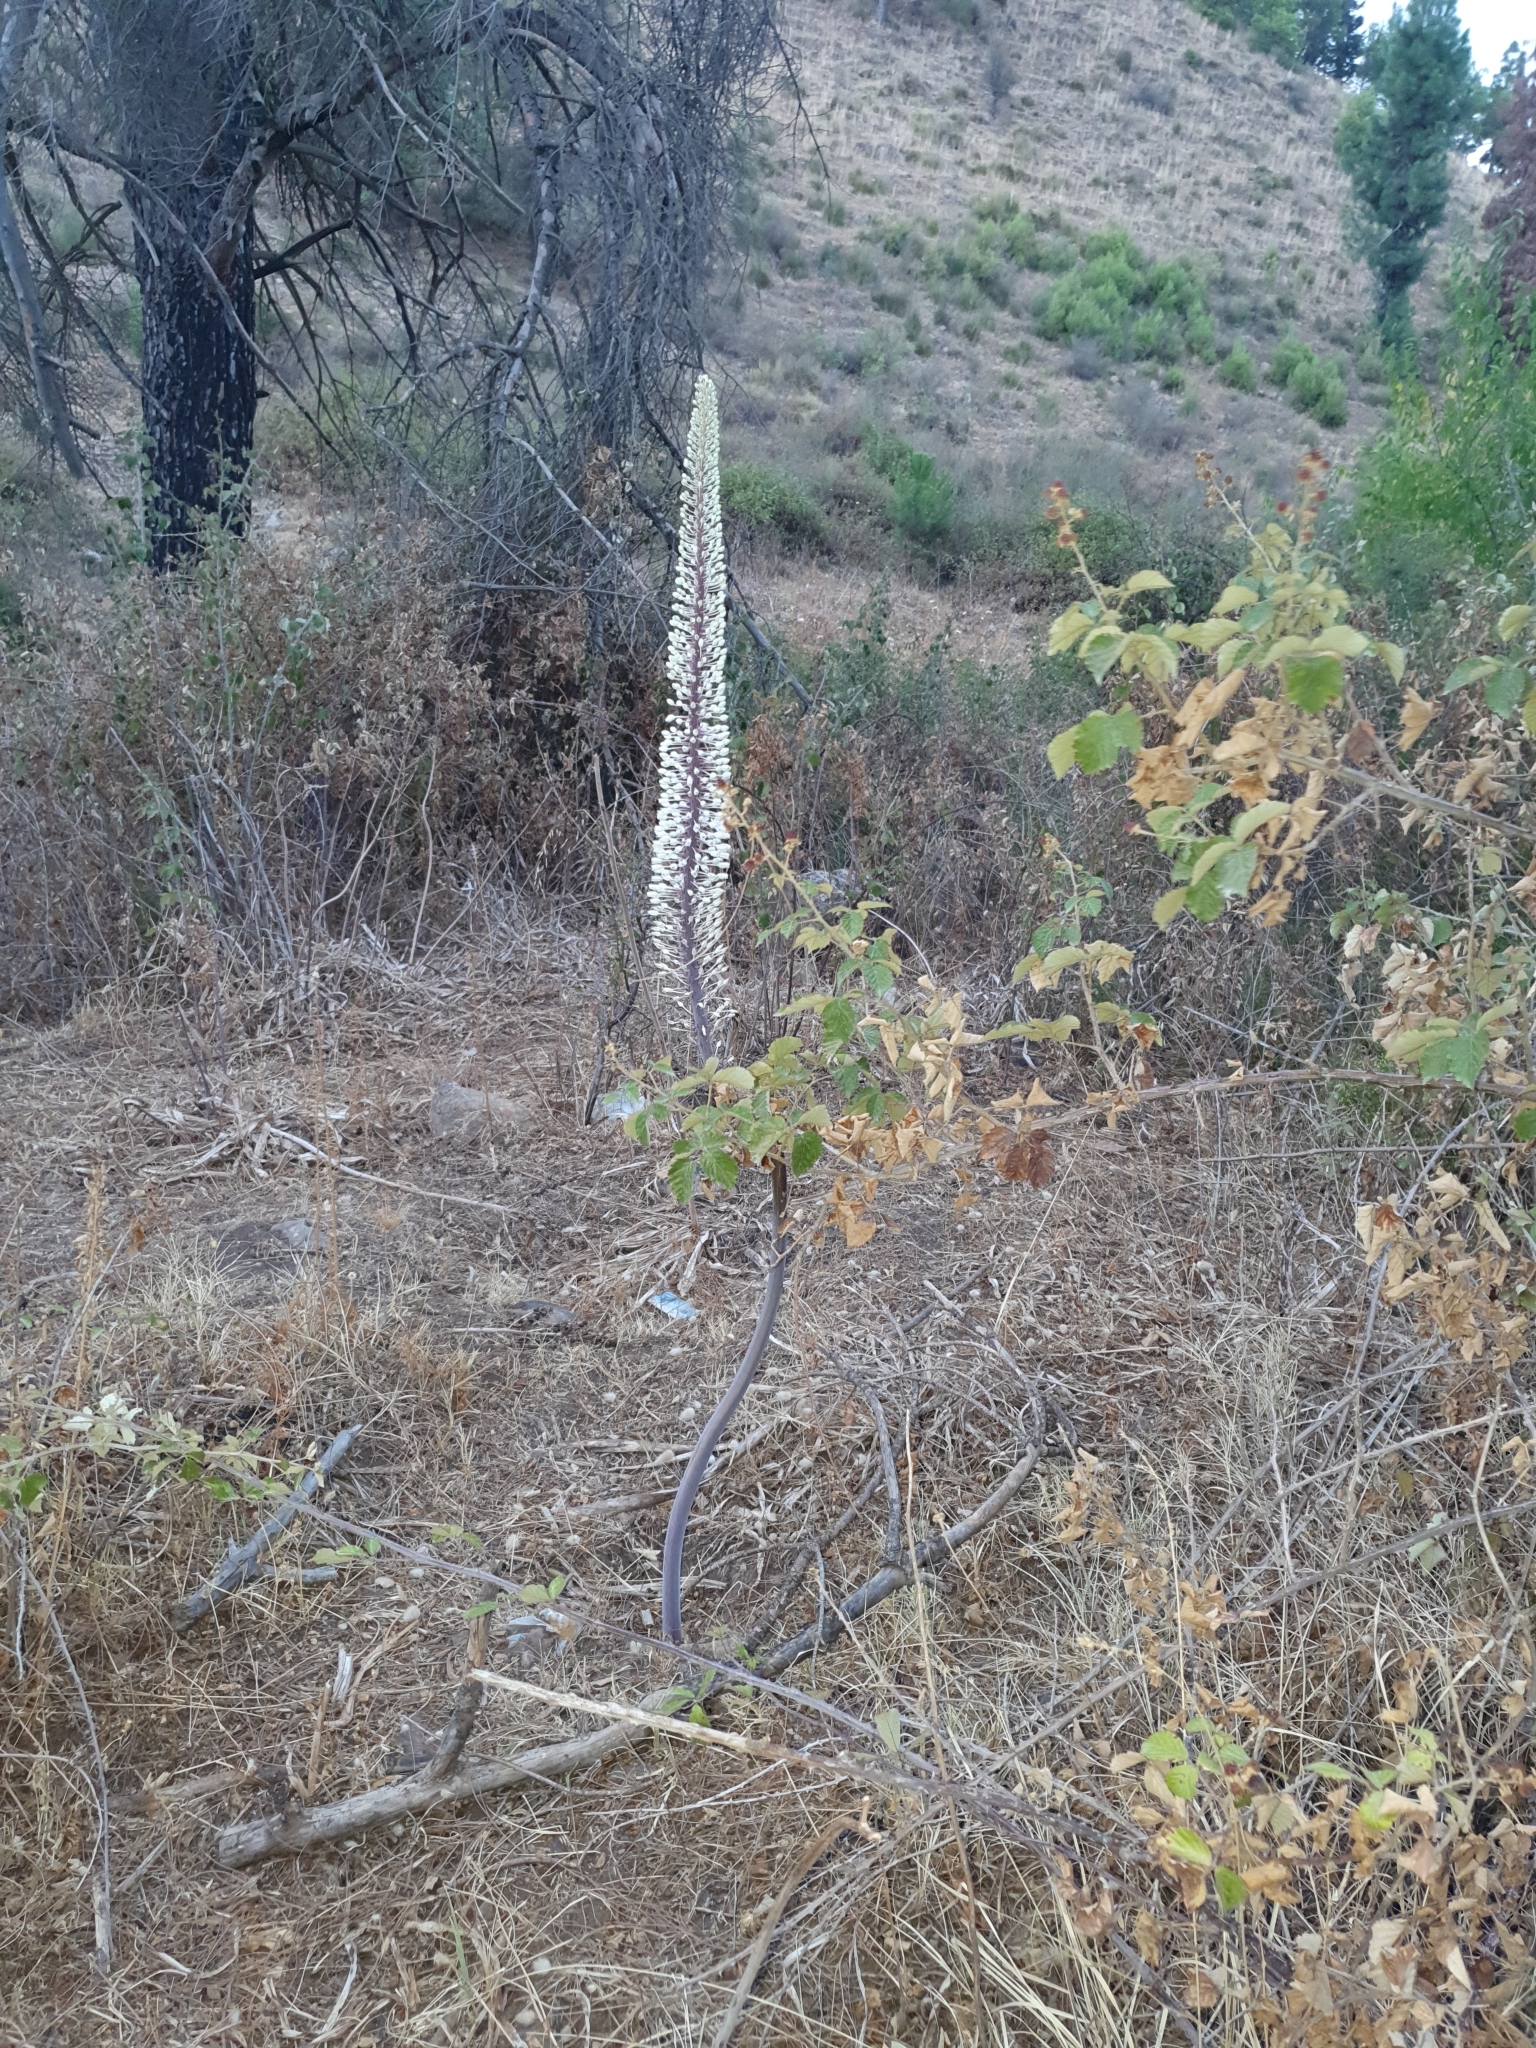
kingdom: Plantae
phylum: Tracheophyta
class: Liliopsida
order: Asparagales
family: Asparagaceae
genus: Drimia
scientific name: Drimia numidica
